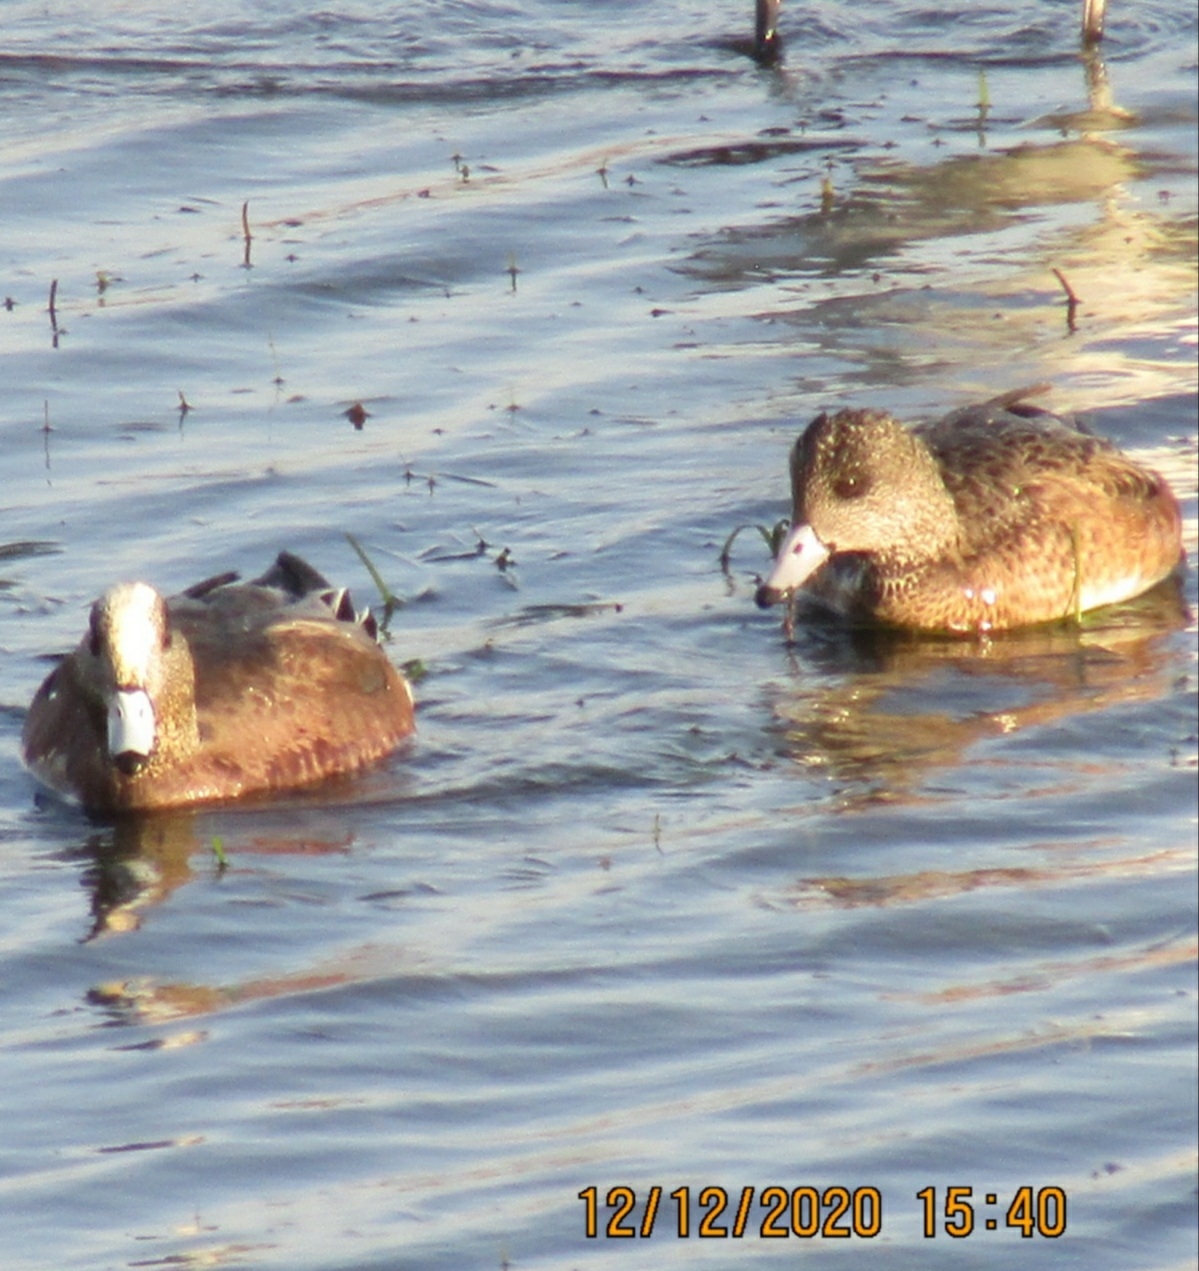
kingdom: Animalia
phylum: Chordata
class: Aves
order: Anseriformes
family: Anatidae
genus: Mareca
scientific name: Mareca americana
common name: American wigeon
